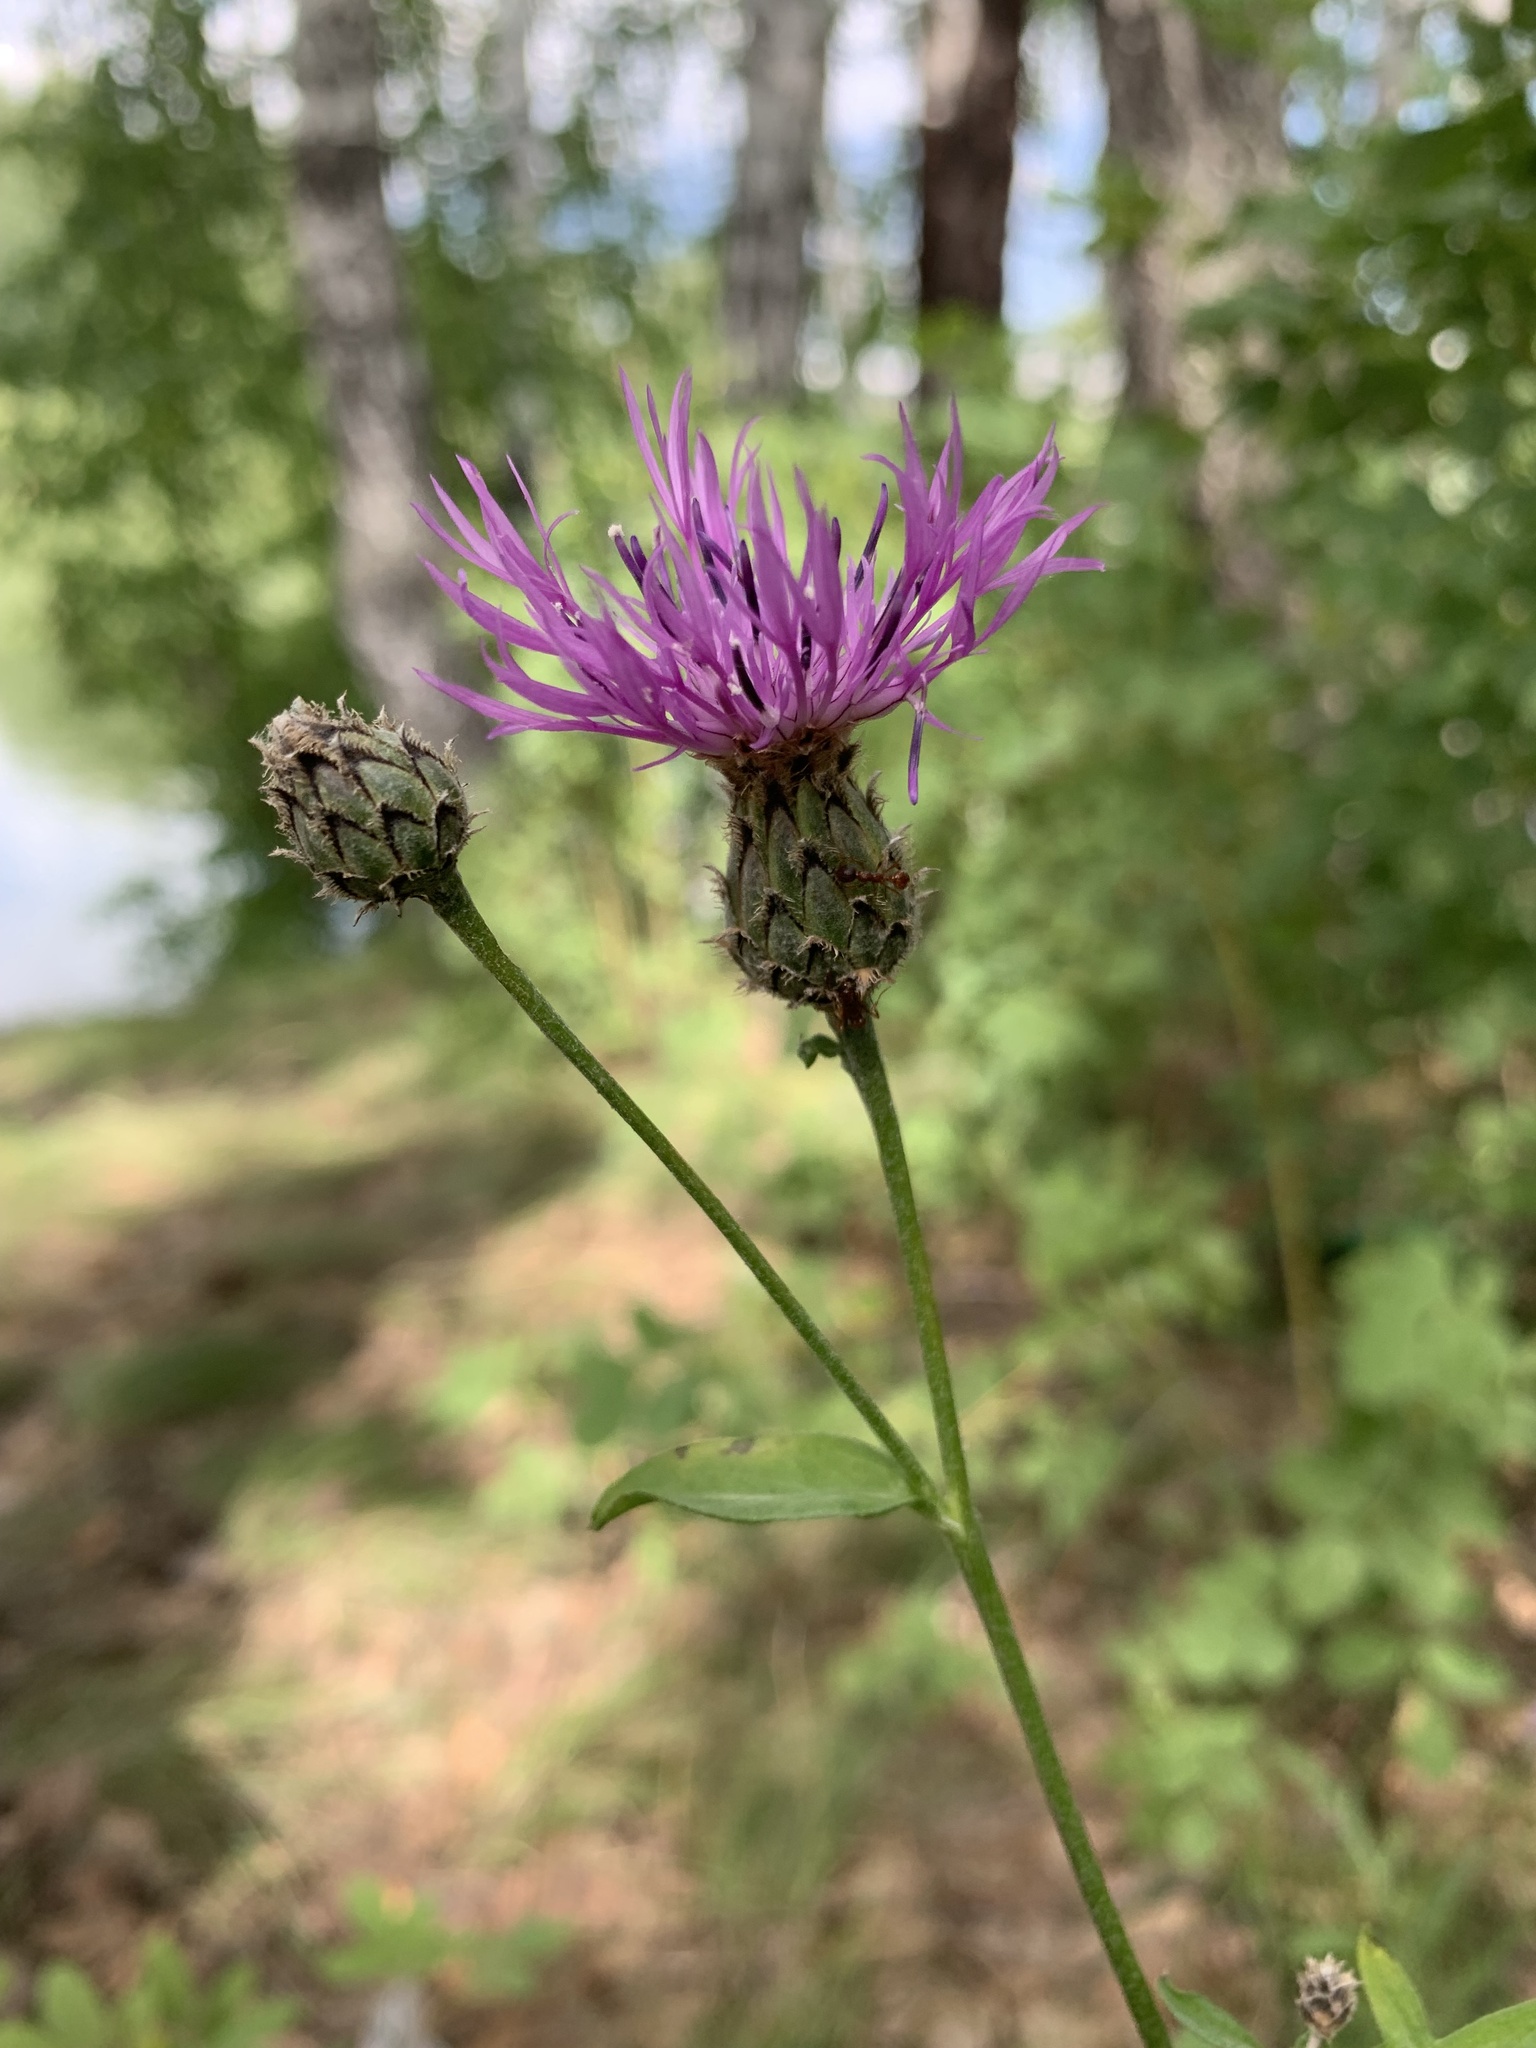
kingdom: Plantae
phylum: Tracheophyta
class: Magnoliopsida
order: Asterales
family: Asteraceae
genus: Centaurea
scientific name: Centaurea scabiosa
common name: Greater knapweed
